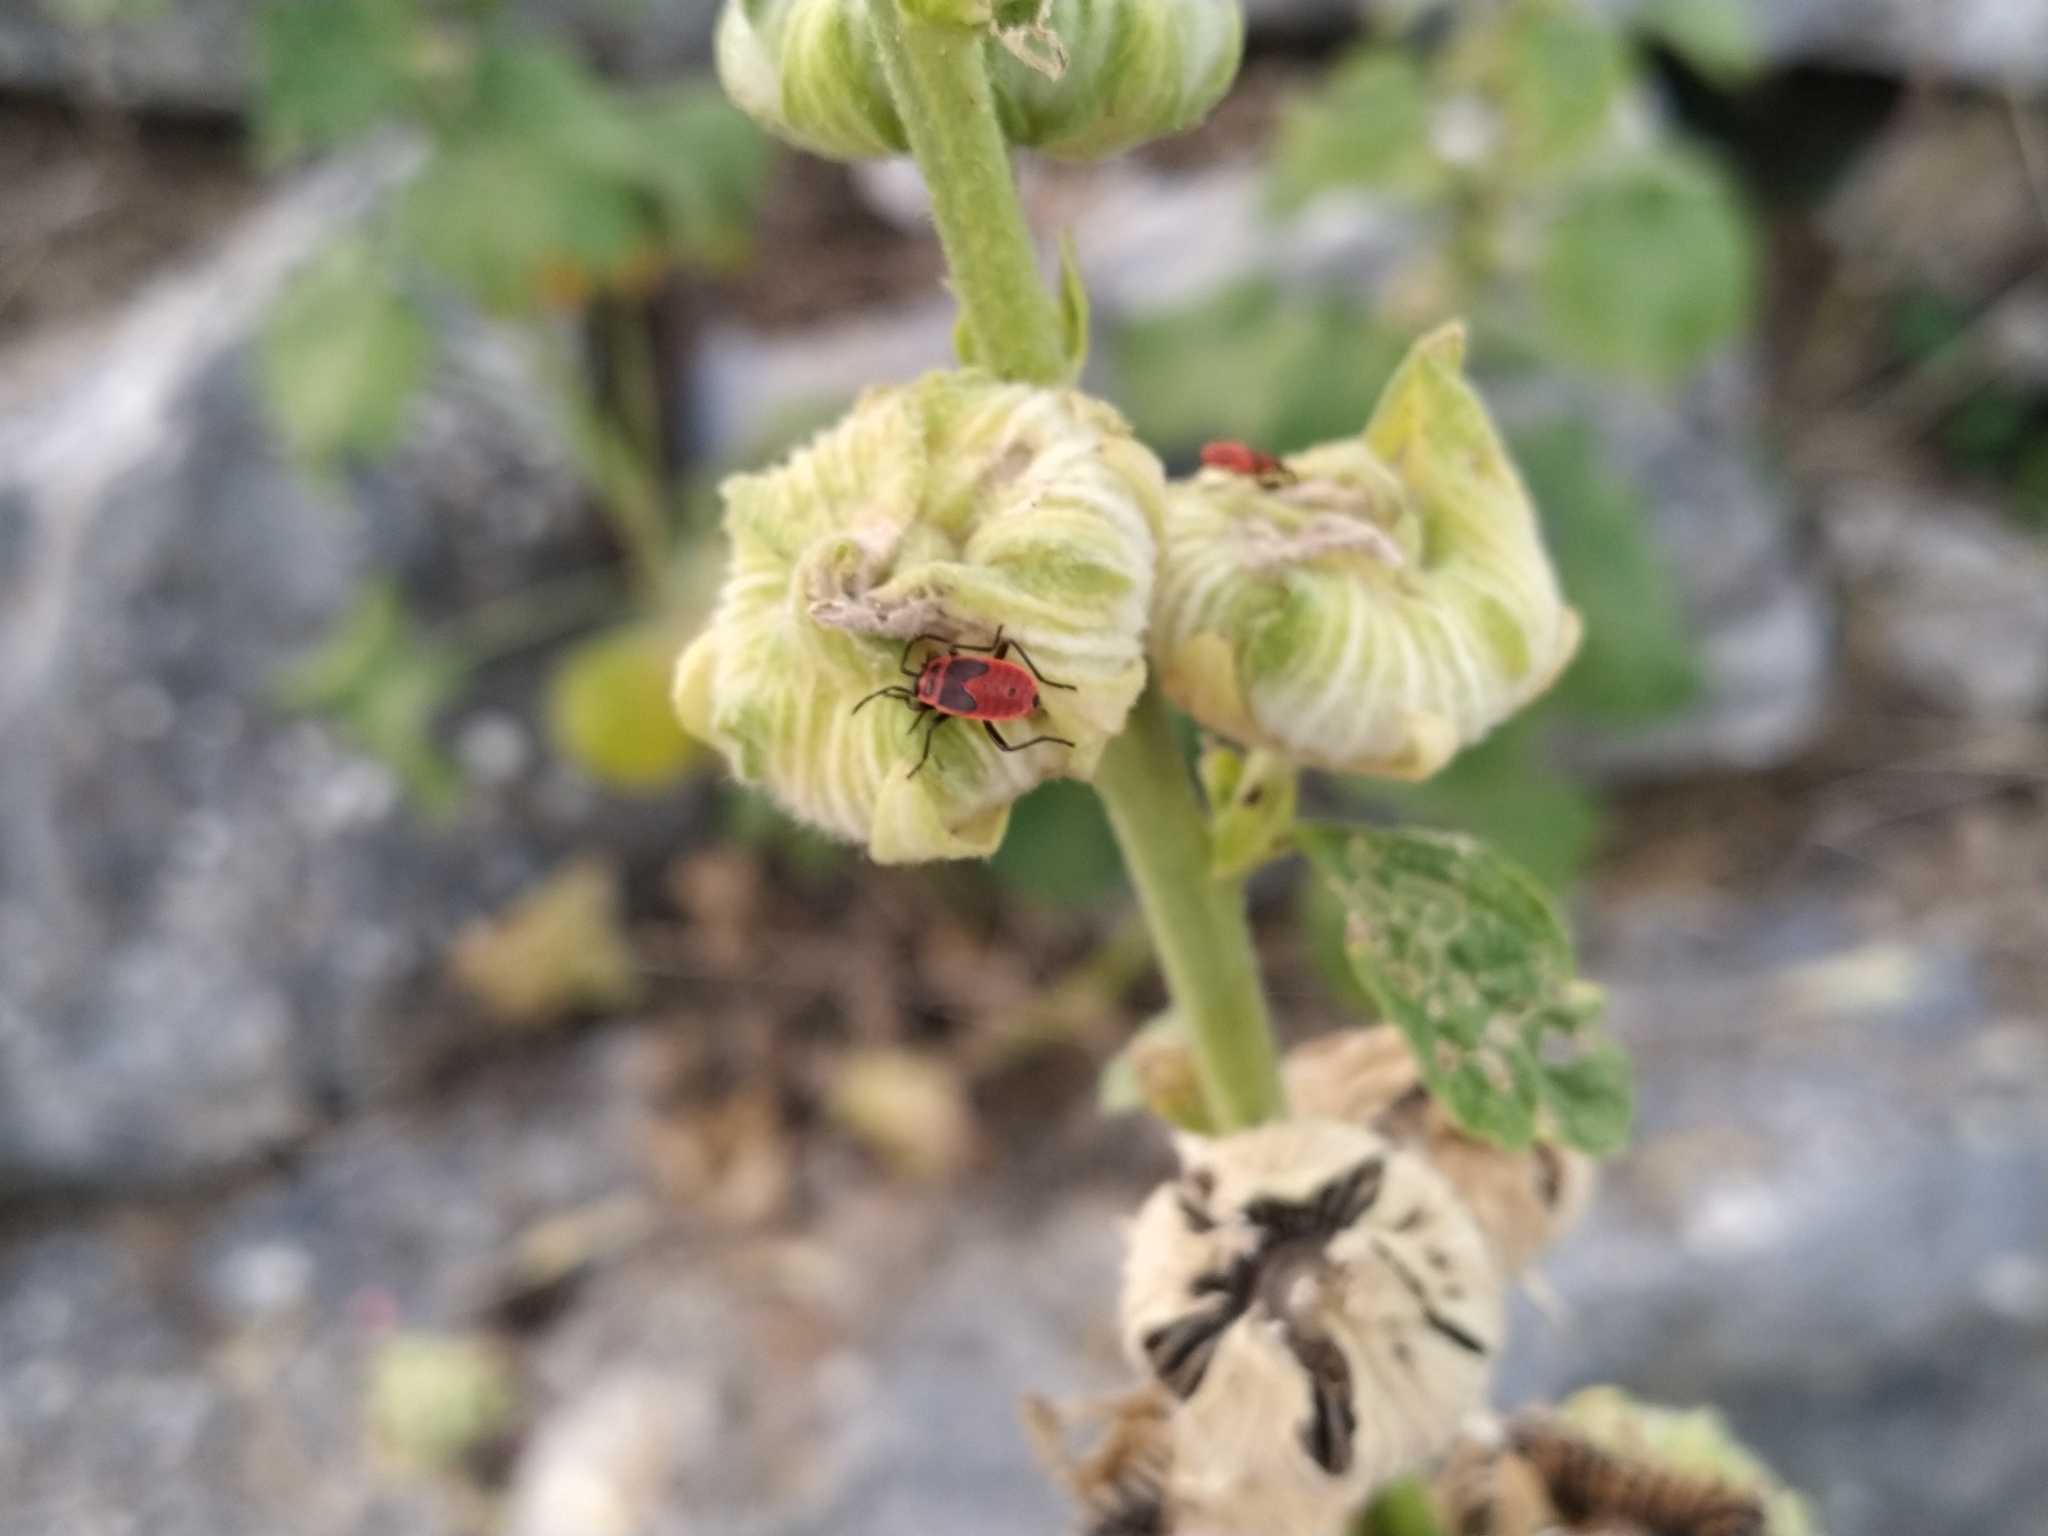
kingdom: Animalia
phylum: Arthropoda
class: Insecta
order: Hemiptera
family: Pyrrhocoridae
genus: Pyrrhocoris
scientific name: Pyrrhocoris apterus
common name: Firebug
